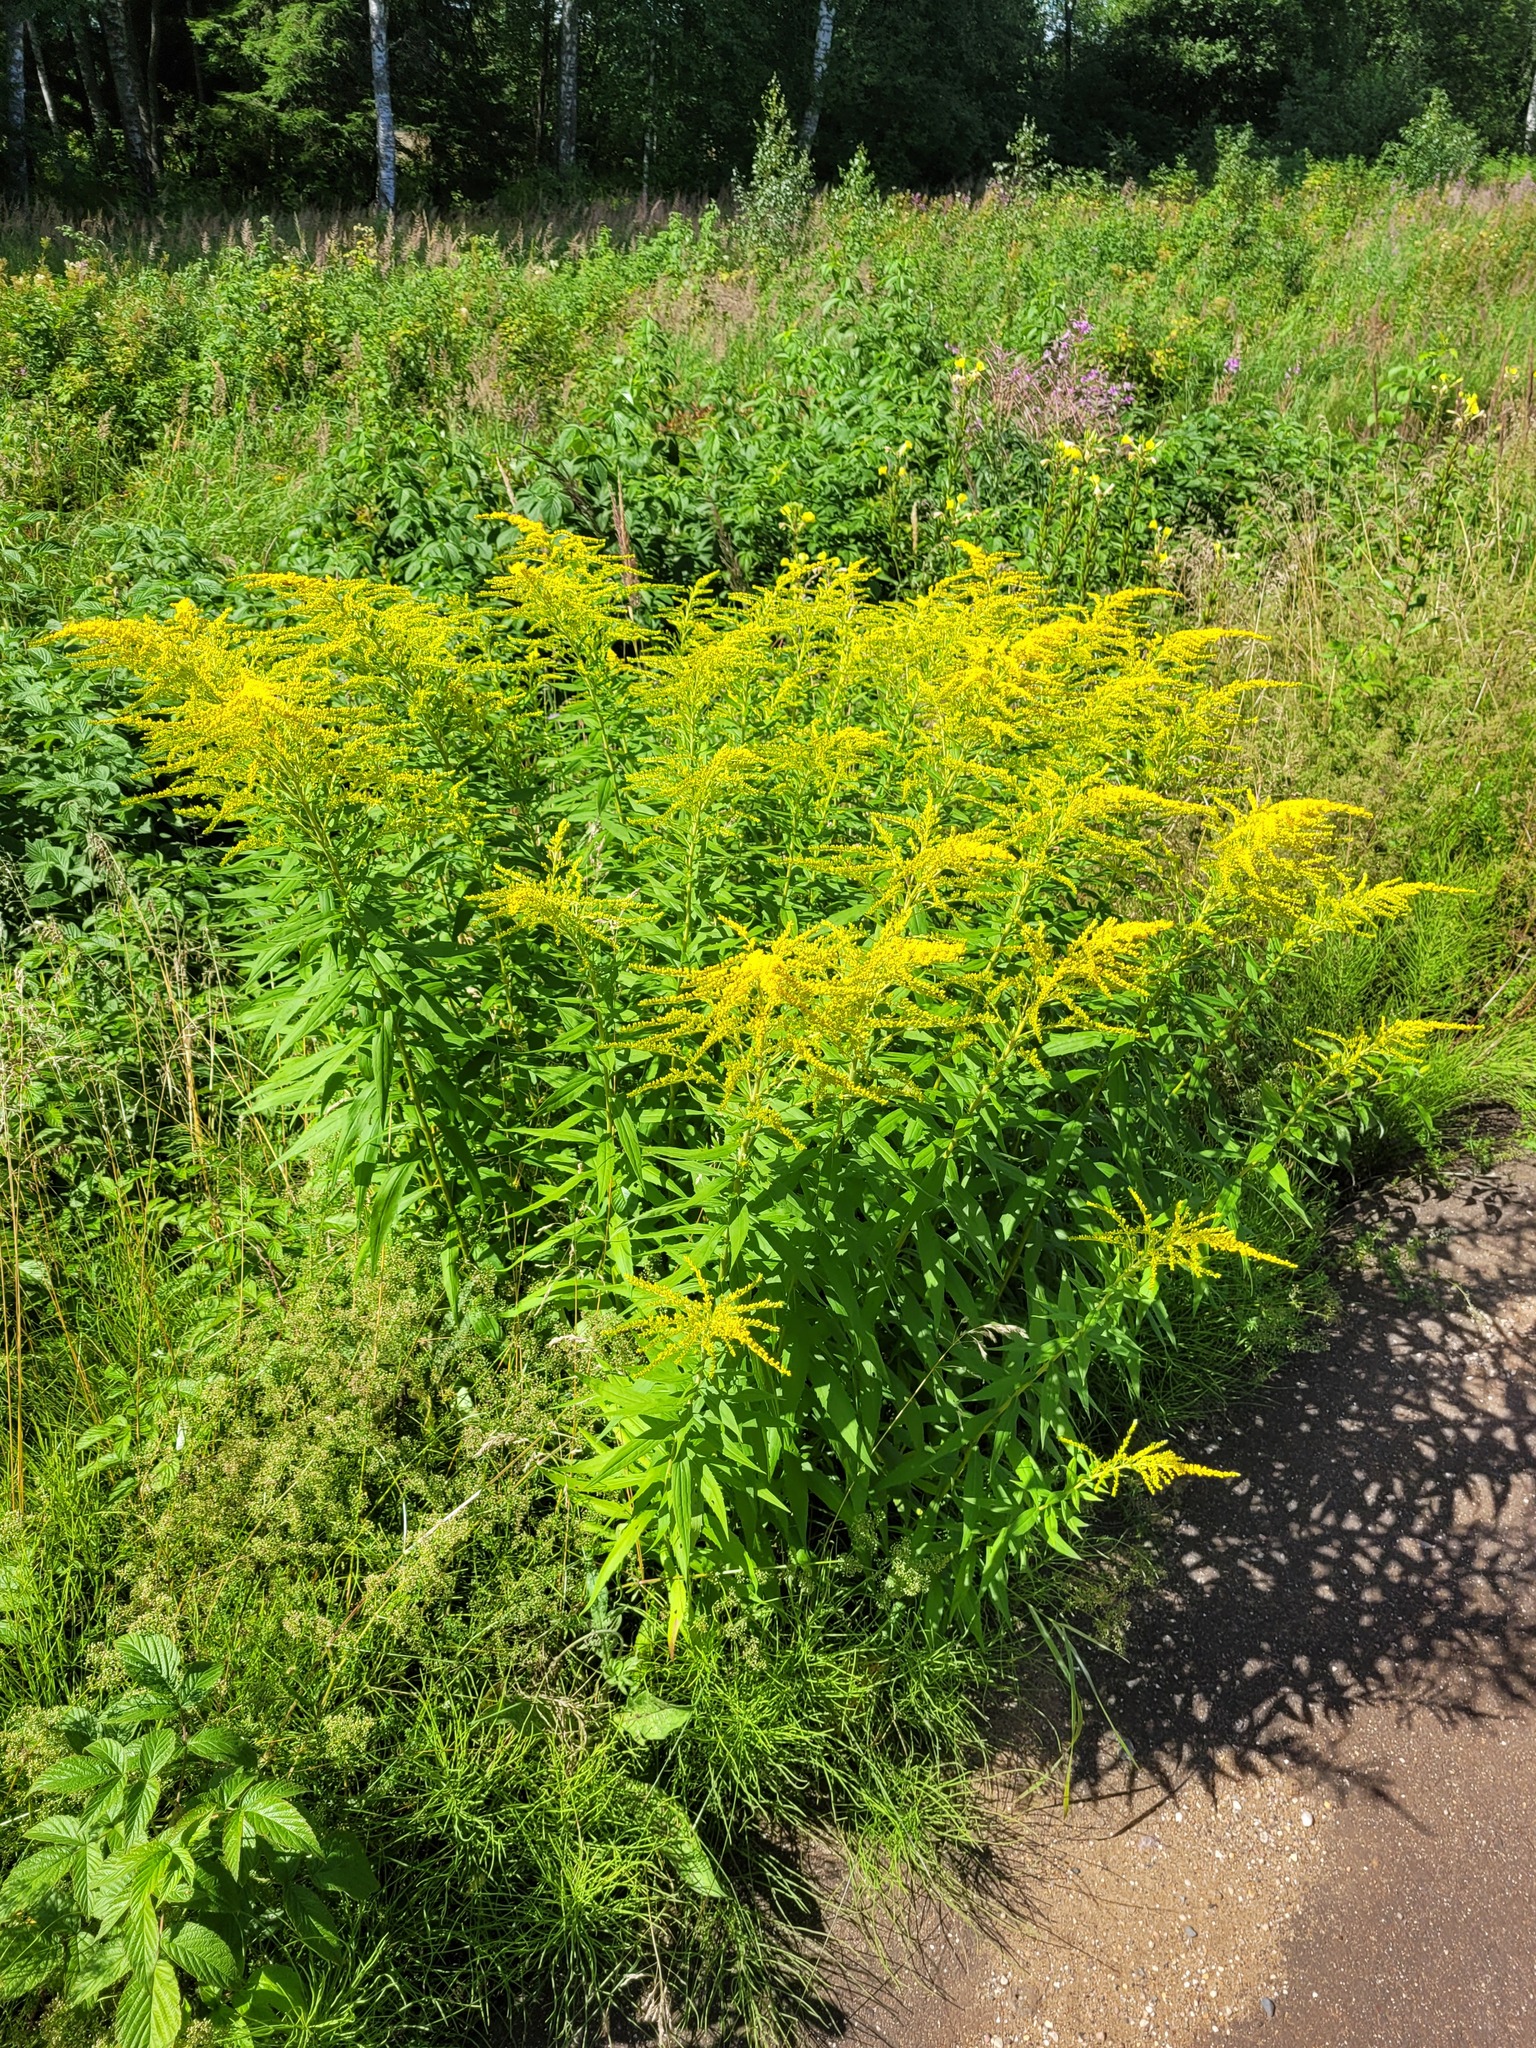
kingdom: Plantae
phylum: Tracheophyta
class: Magnoliopsida
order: Asterales
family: Asteraceae
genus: Solidago
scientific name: Solidago canadensis
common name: Canada goldenrod
